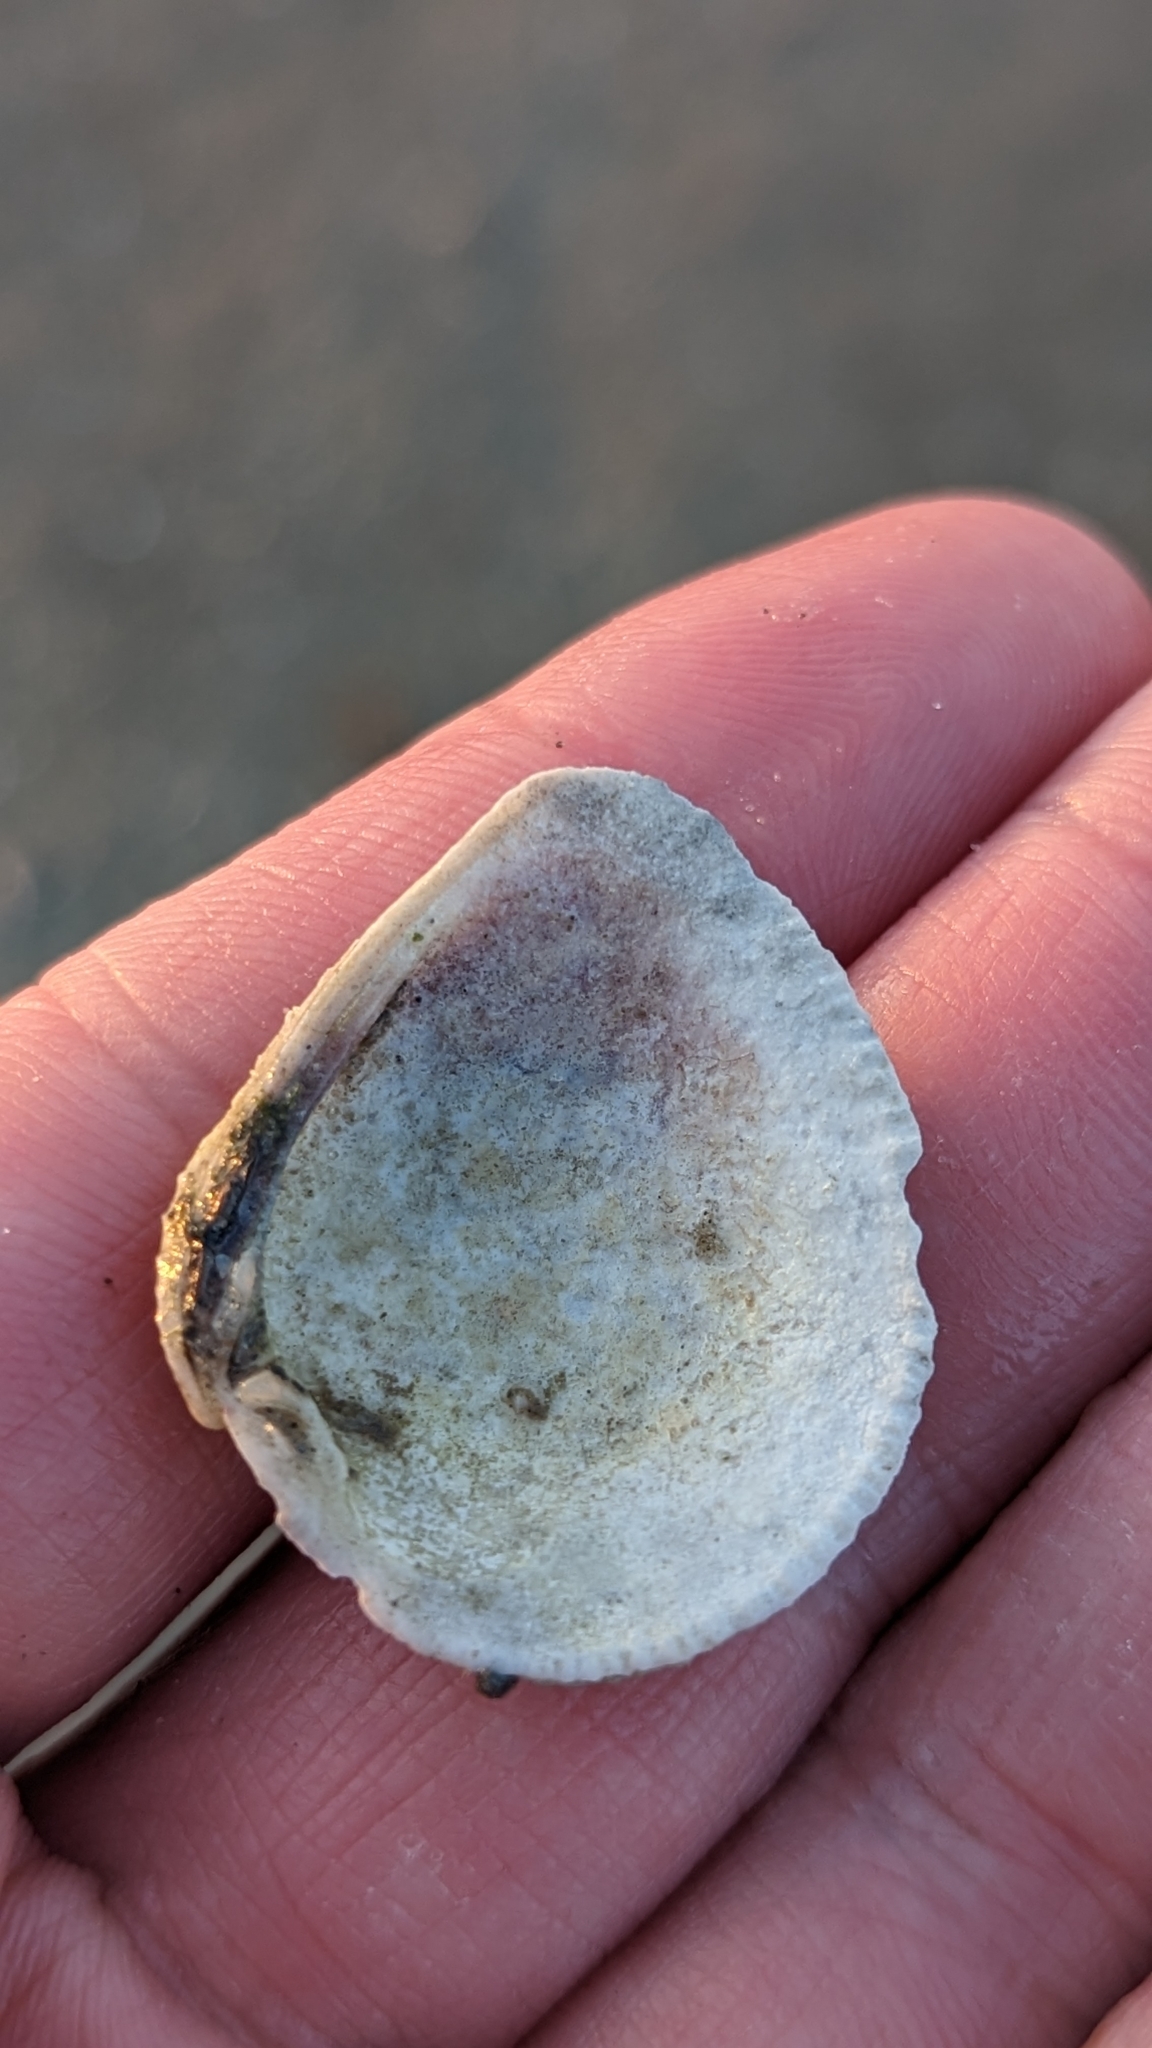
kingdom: Animalia
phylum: Mollusca
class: Bivalvia
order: Venerida
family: Veneridae
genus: Chione
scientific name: Chione elevata
